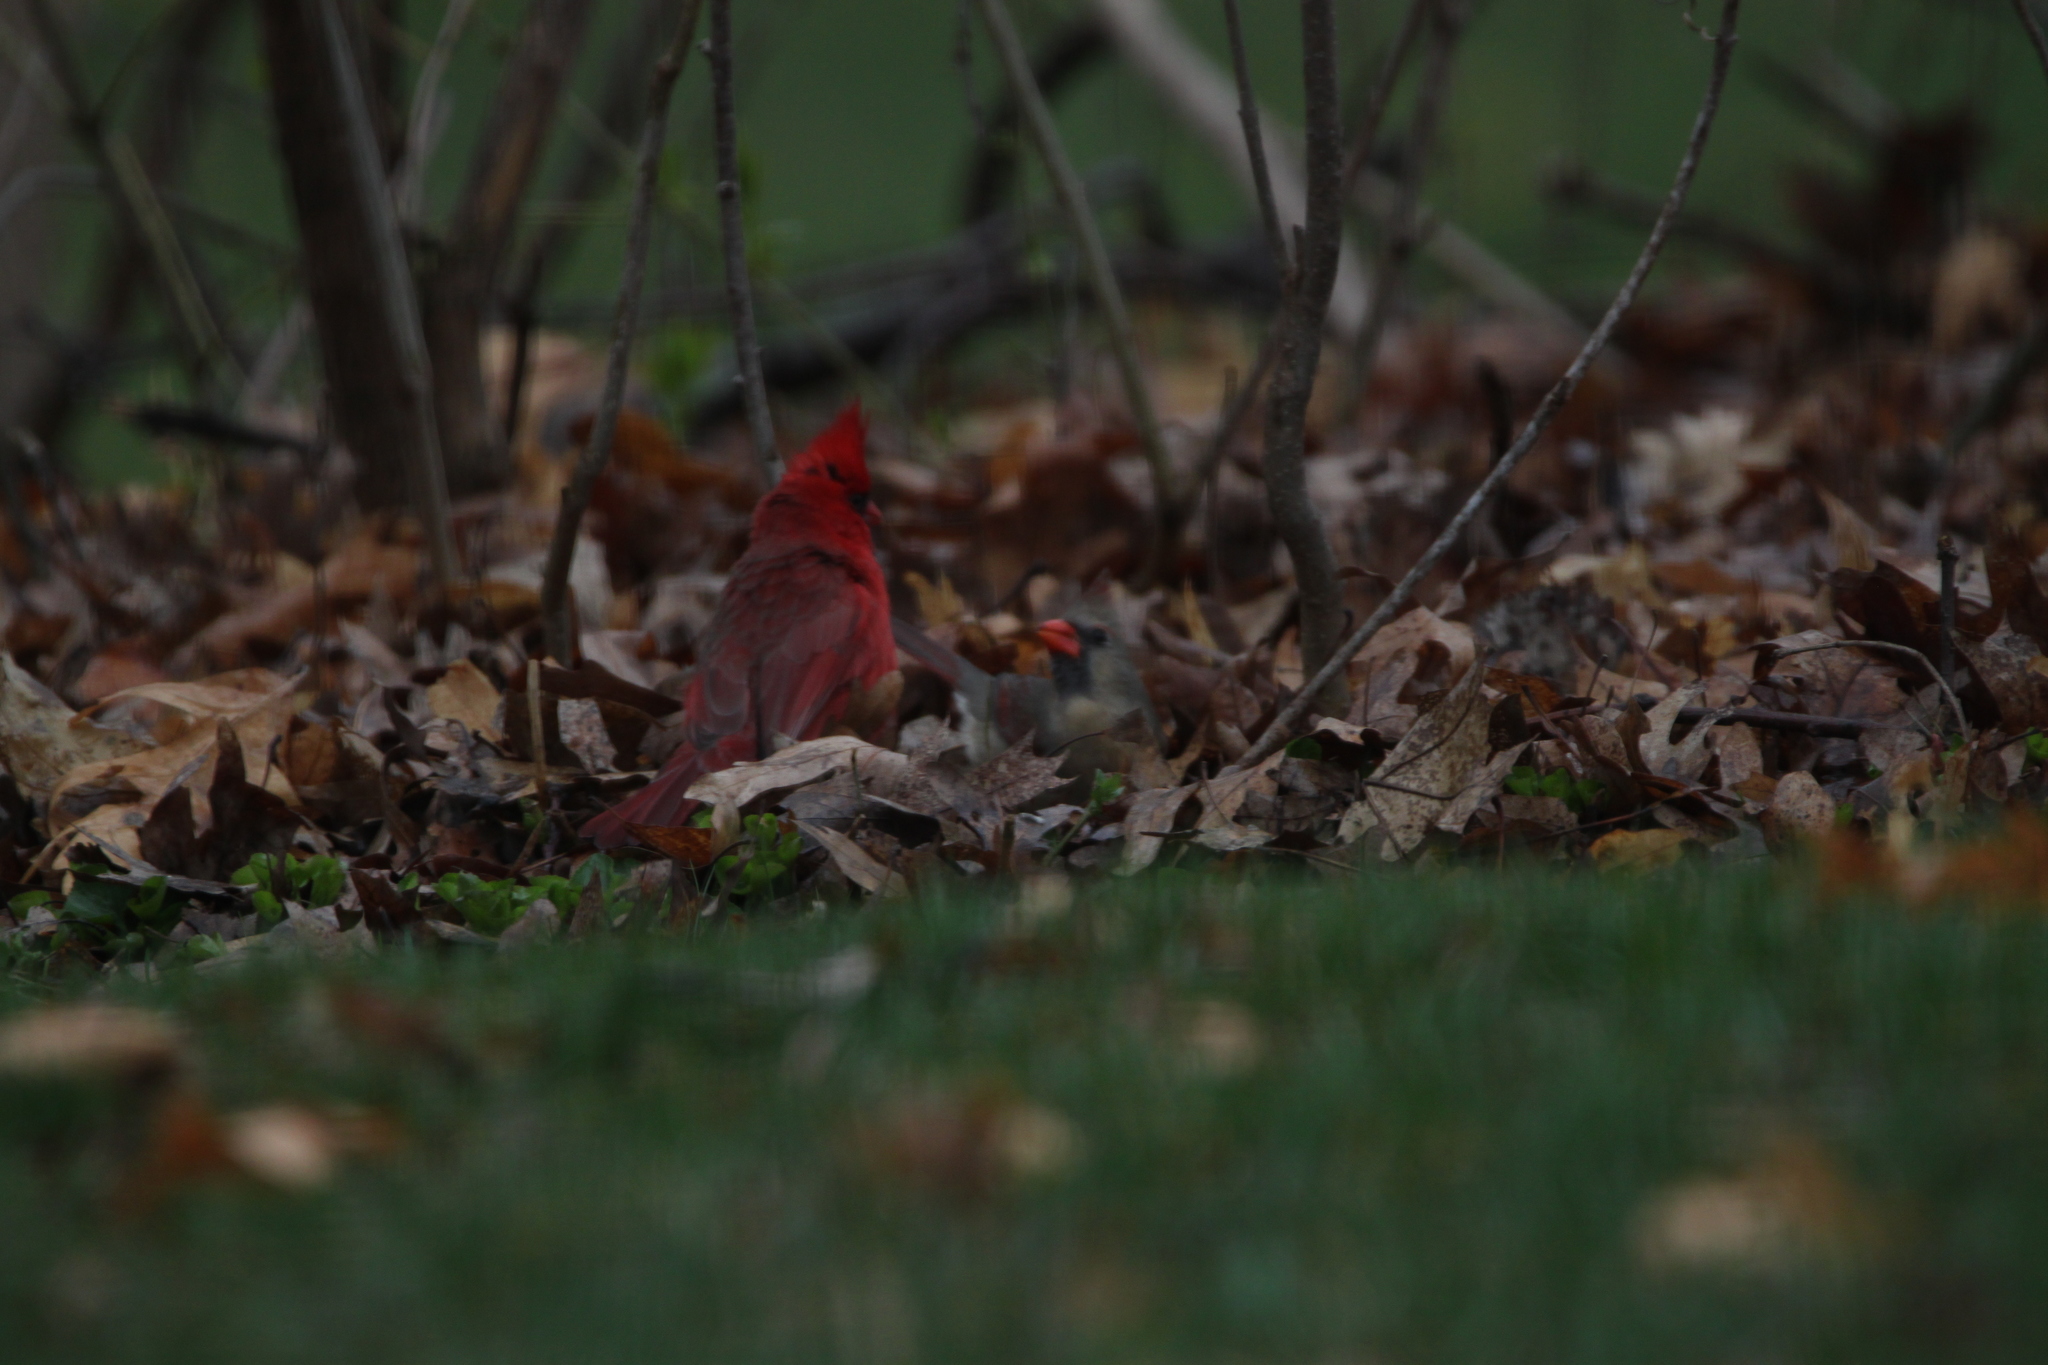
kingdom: Animalia
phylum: Chordata
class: Aves
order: Passeriformes
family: Cardinalidae
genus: Cardinalis
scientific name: Cardinalis cardinalis
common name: Northern cardinal
